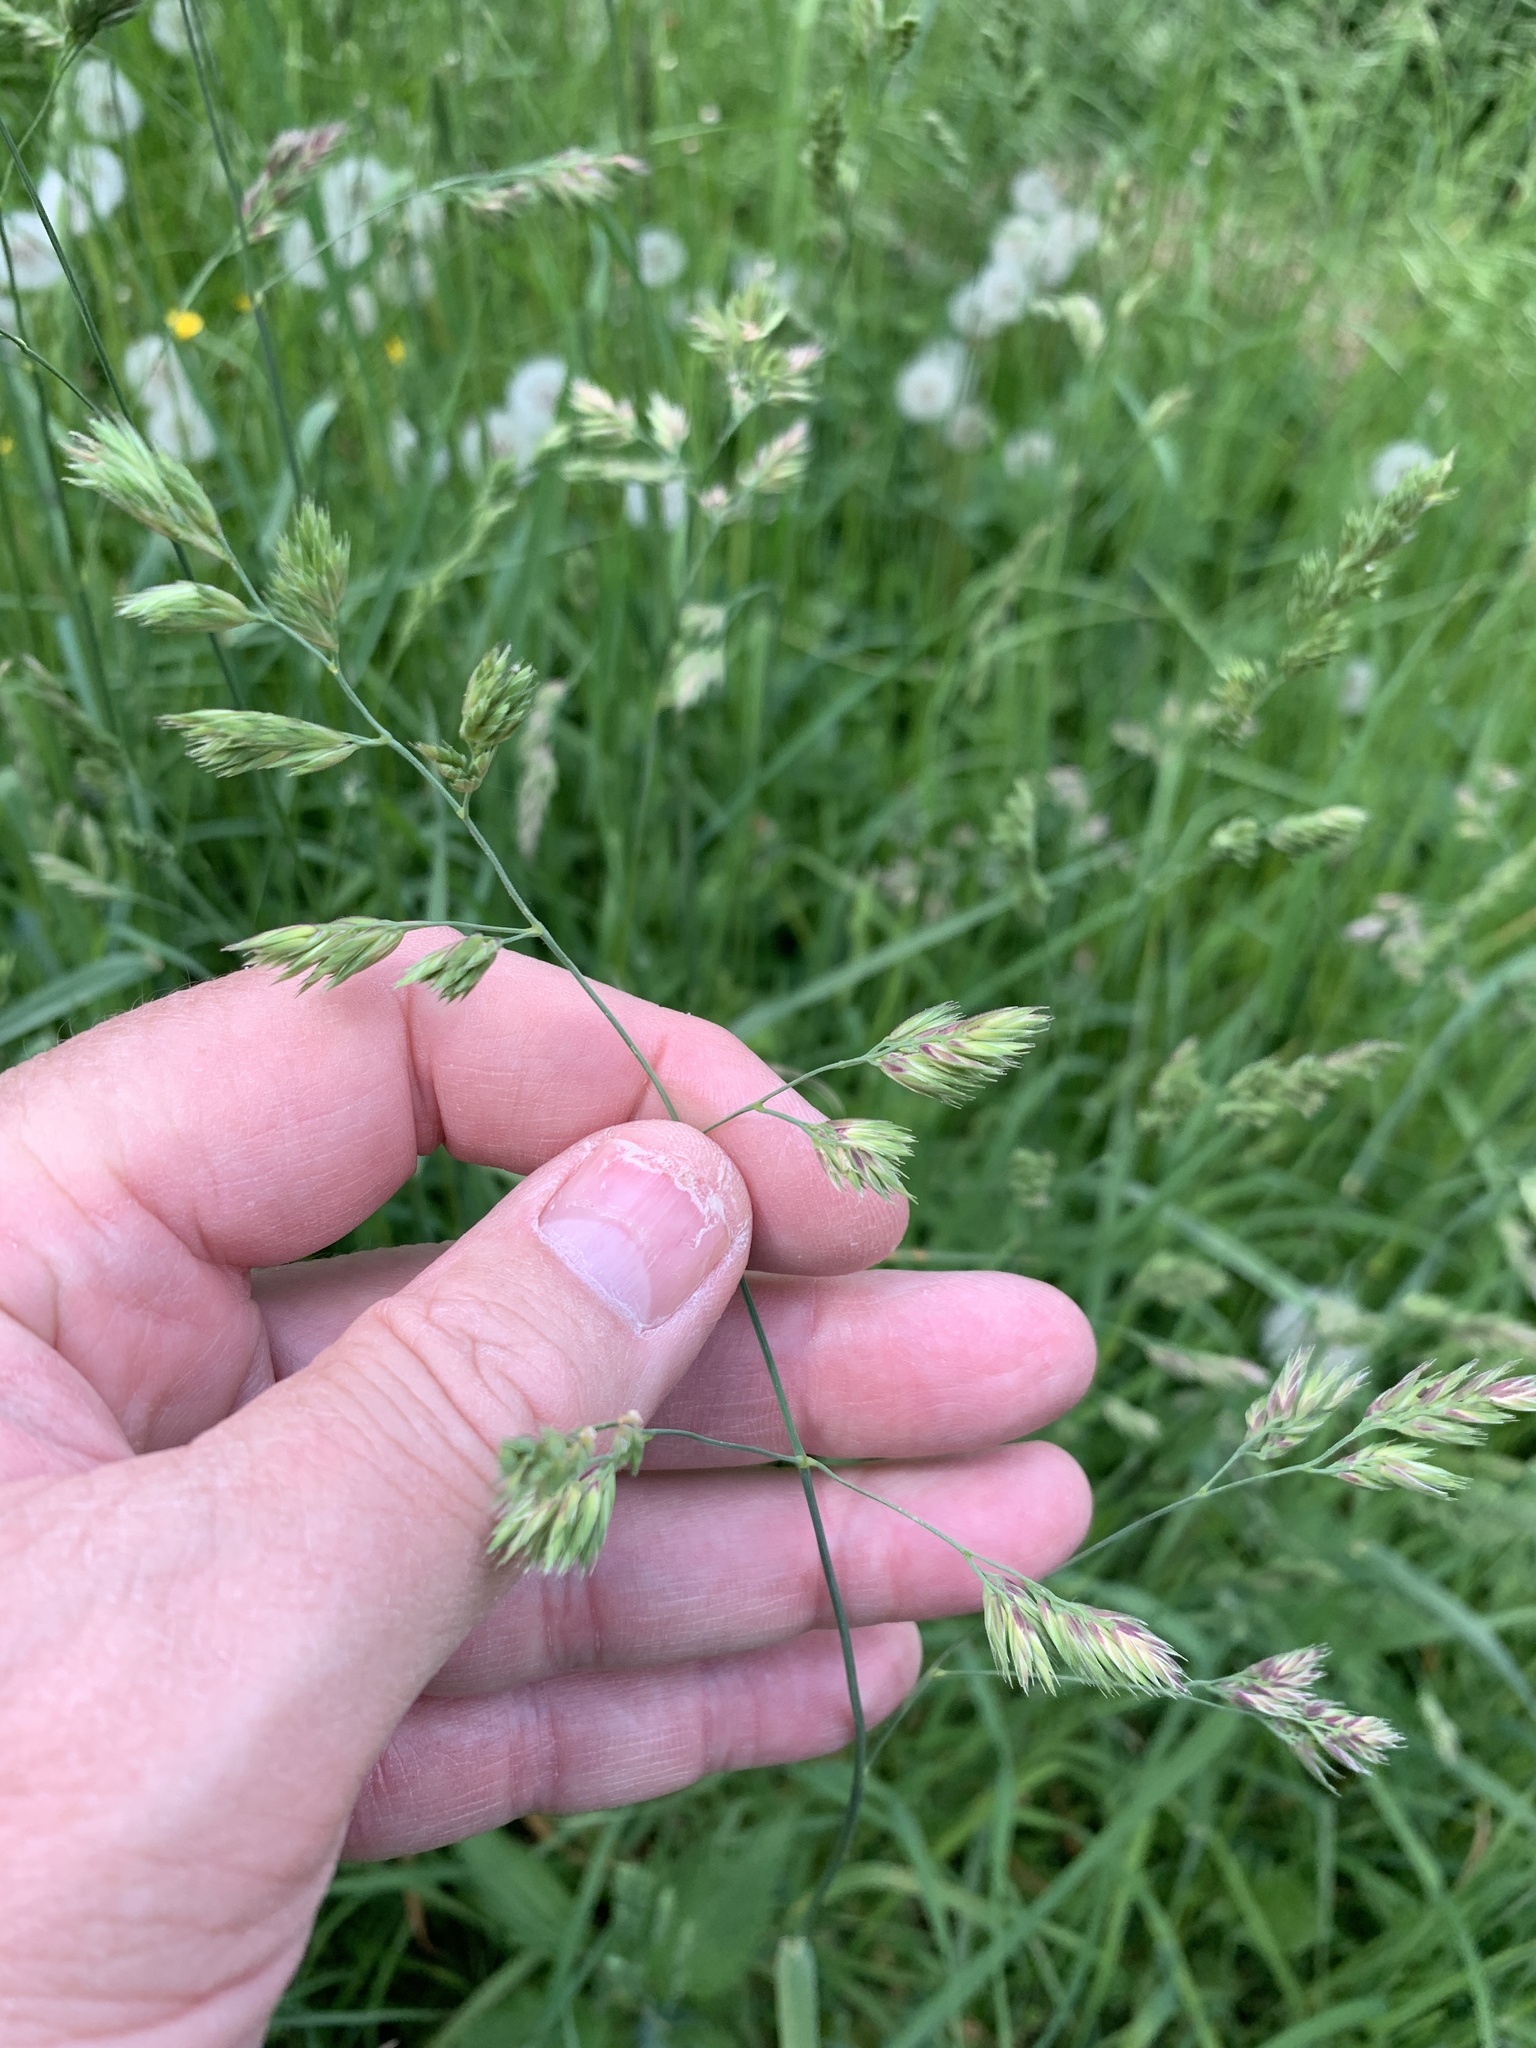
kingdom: Plantae
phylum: Tracheophyta
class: Liliopsida
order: Poales
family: Poaceae
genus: Dactylis
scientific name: Dactylis glomerata
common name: Orchardgrass
